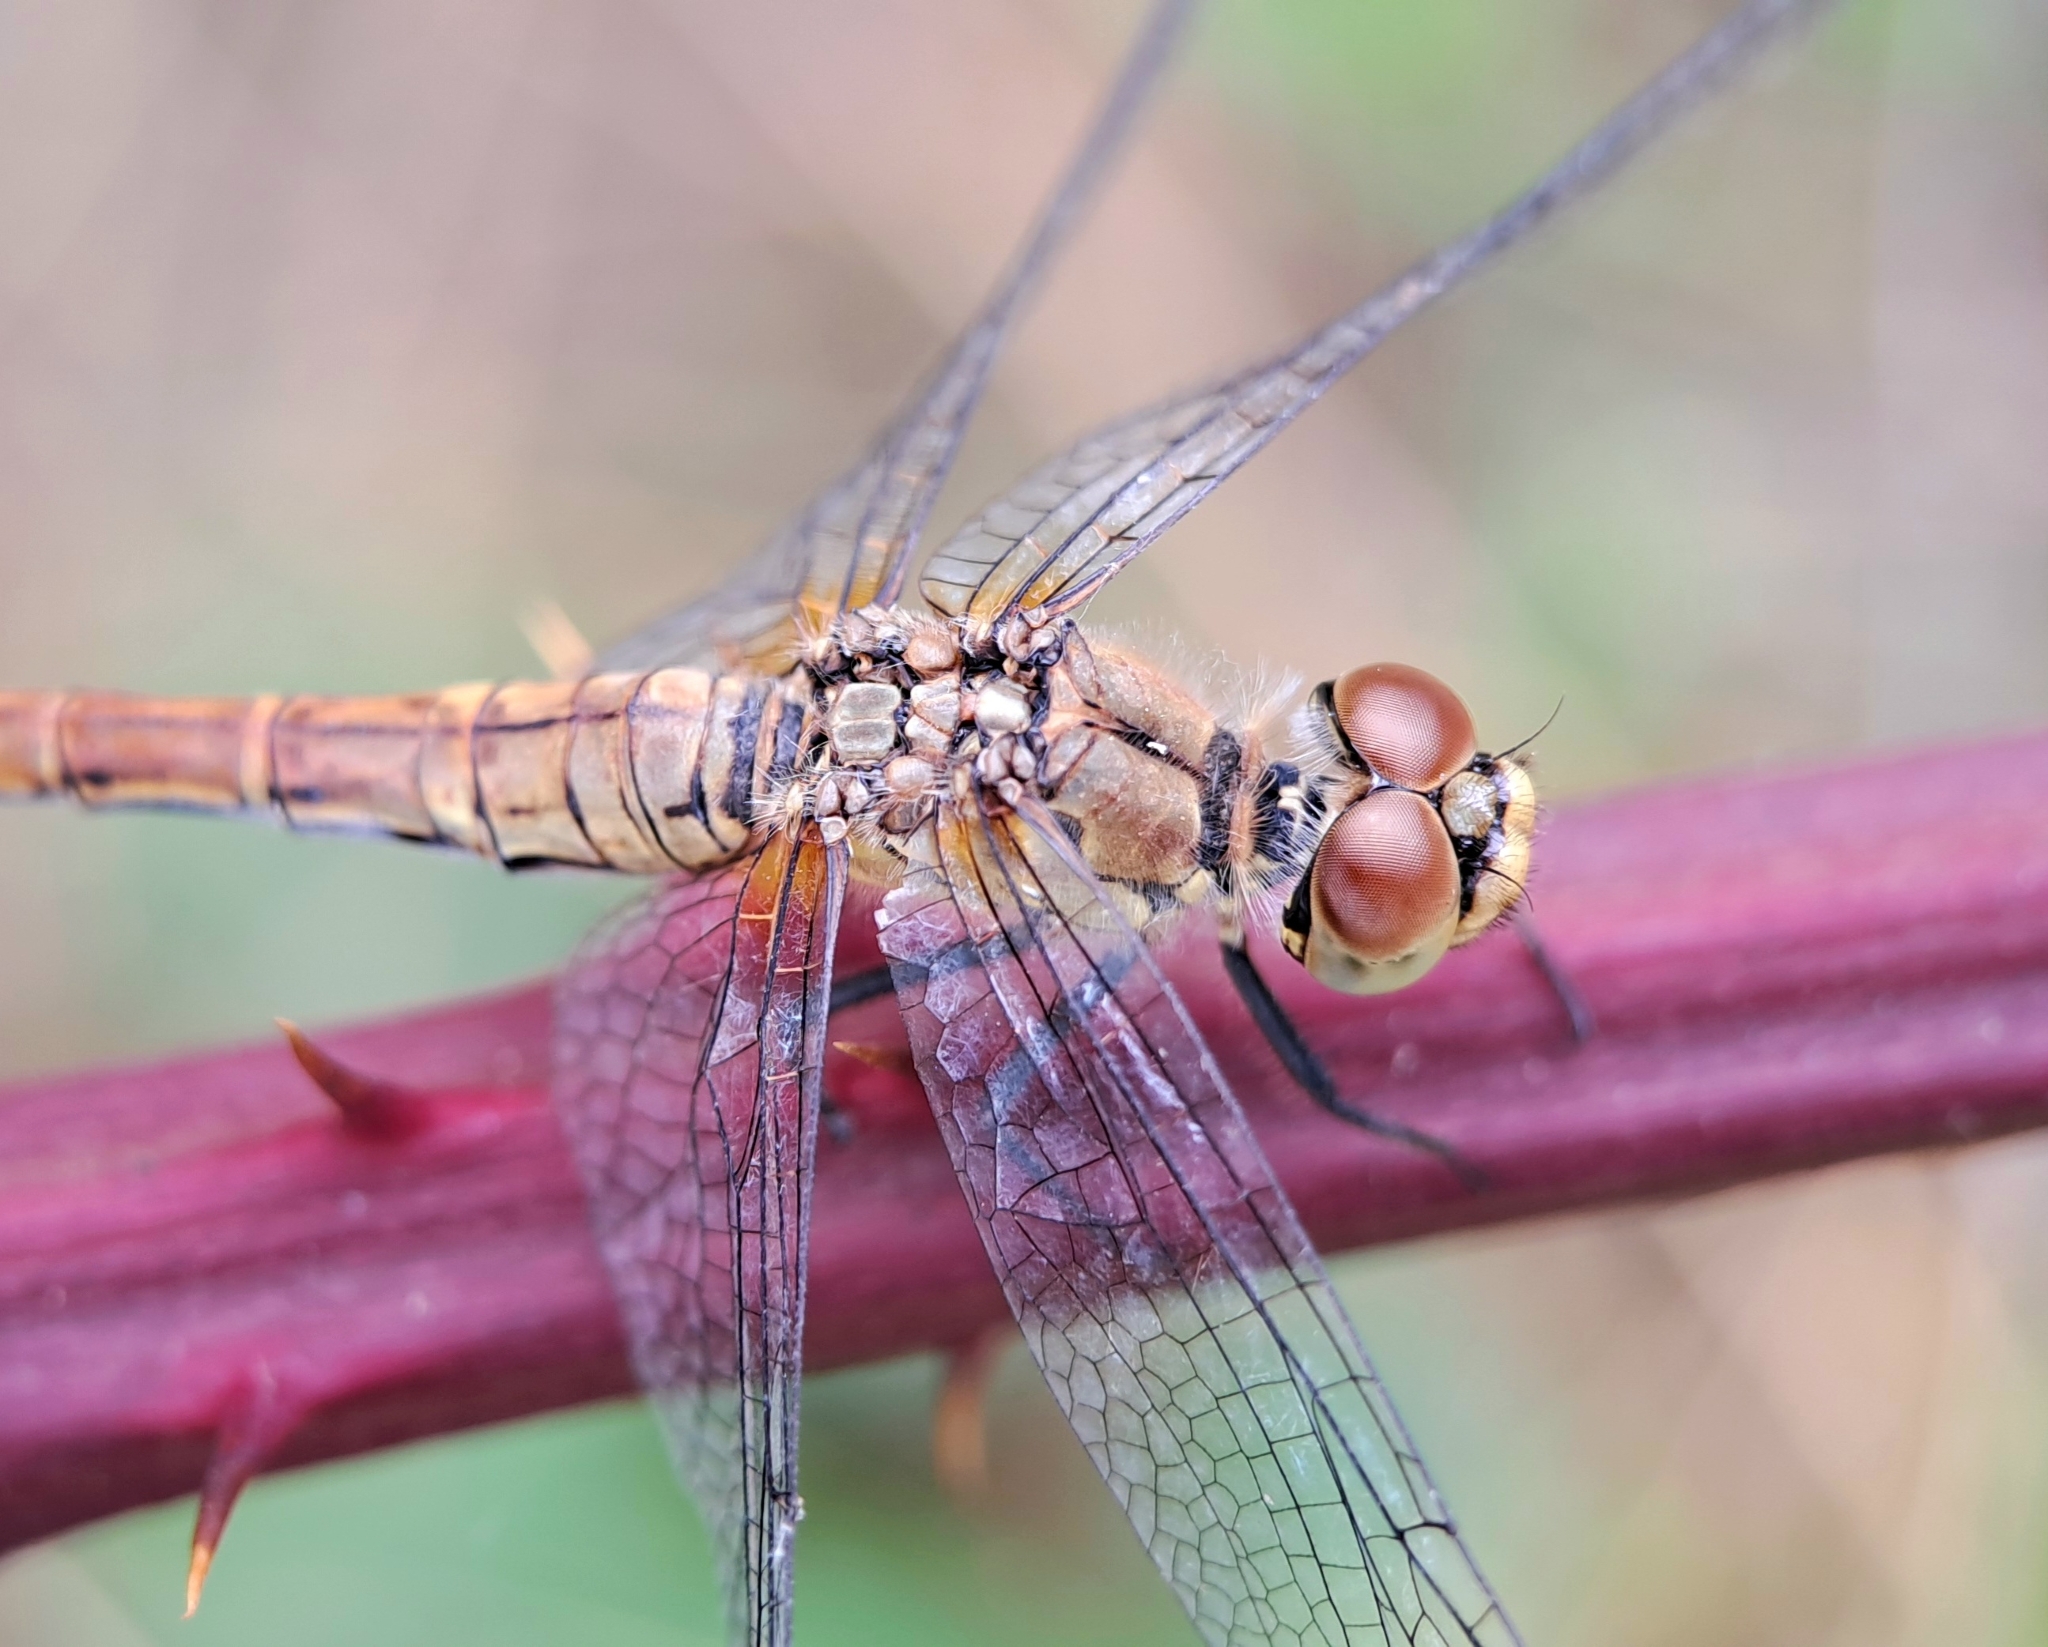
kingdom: Animalia
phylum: Arthropoda
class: Insecta
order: Odonata
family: Libellulidae
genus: Sympetrum
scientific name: Sympetrum sanguineum
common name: Ruddy darter
